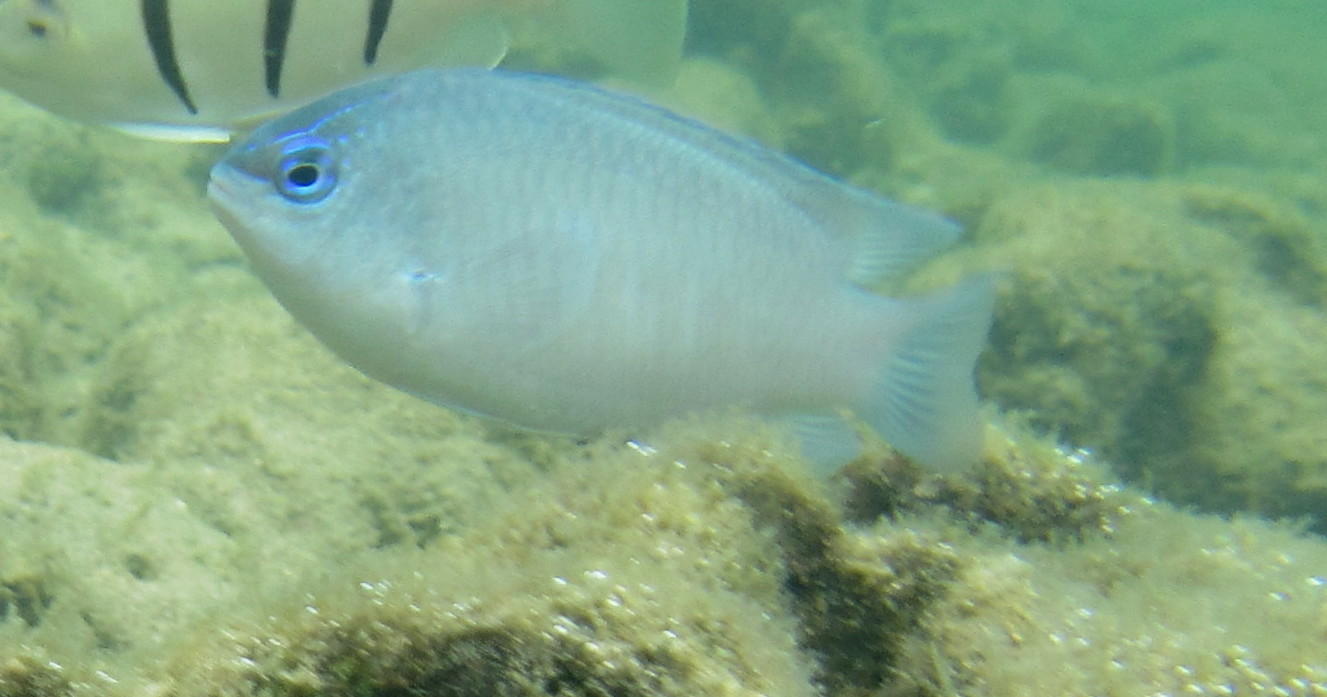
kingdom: Animalia
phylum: Chordata
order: Perciformes
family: Pomacentridae
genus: Chrysiptera
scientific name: Chrysiptera glauca
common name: Grey demoiselle
